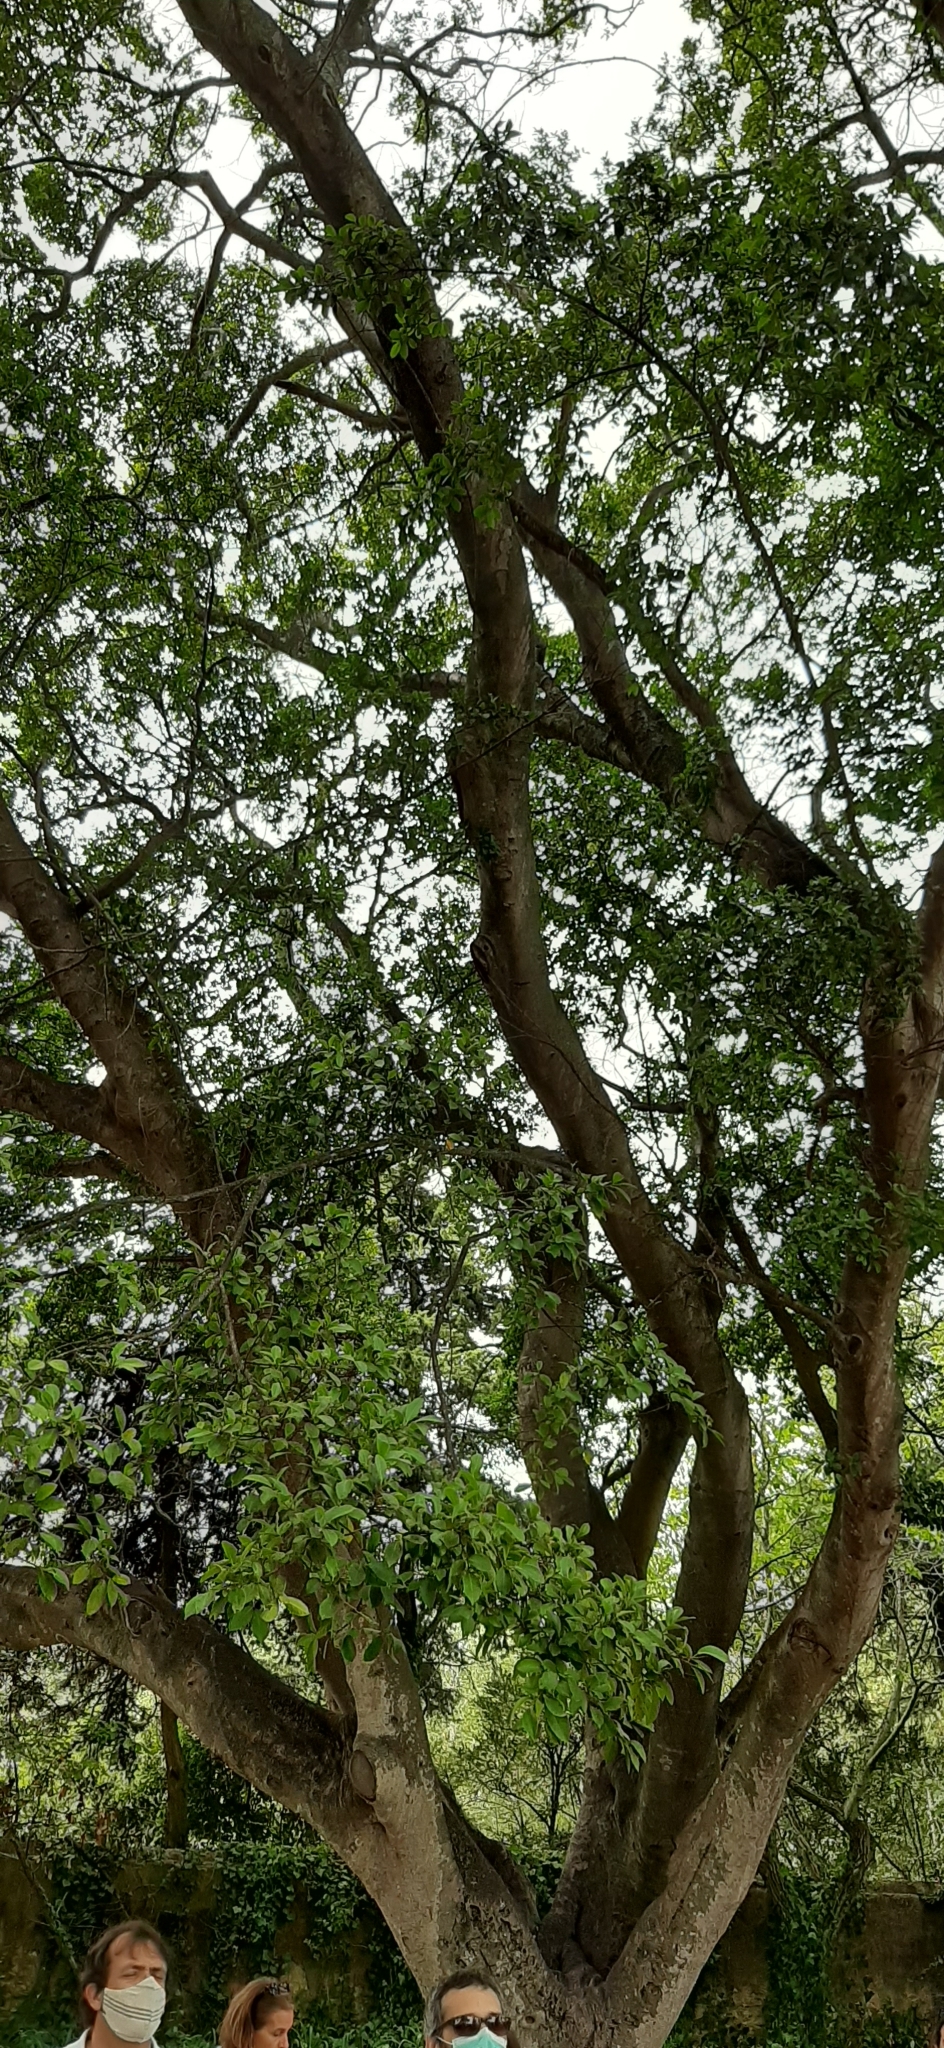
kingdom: Plantae
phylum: Tracheophyta
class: Magnoliopsida
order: Rosales
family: Moraceae
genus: Ficus
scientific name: Ficus microcarpa
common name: Chinese banyan
